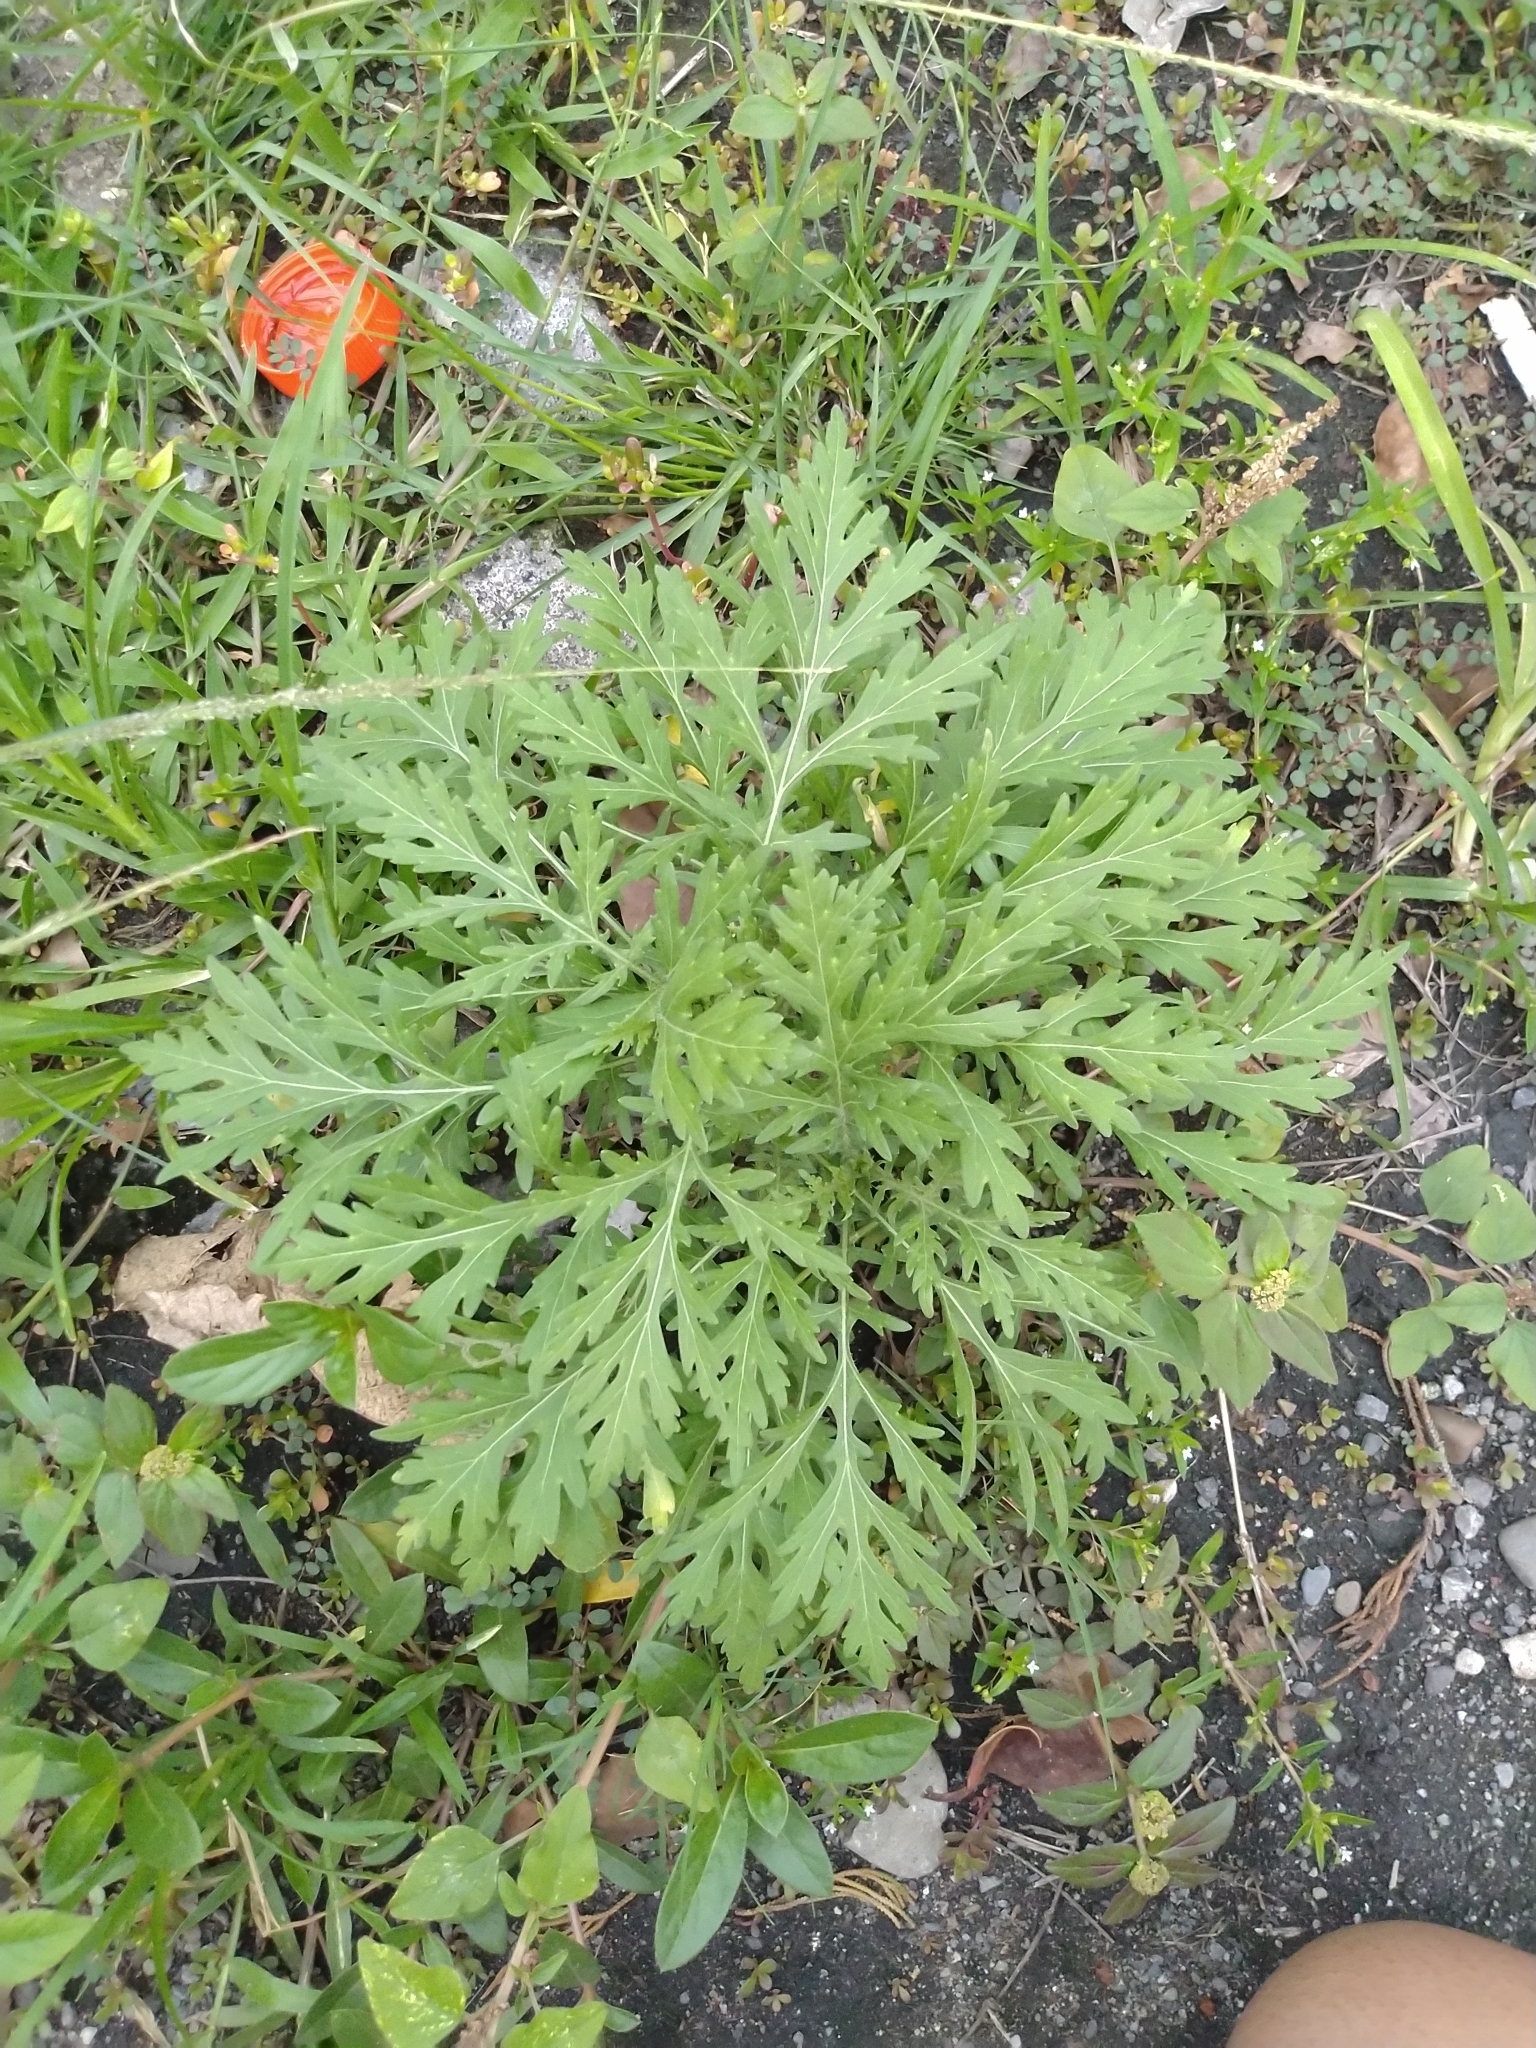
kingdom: Plantae
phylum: Tracheophyta
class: Magnoliopsida
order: Asterales
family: Asteraceae
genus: Parthenium
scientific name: Parthenium hysterophorus
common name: Santa maria feverfew
